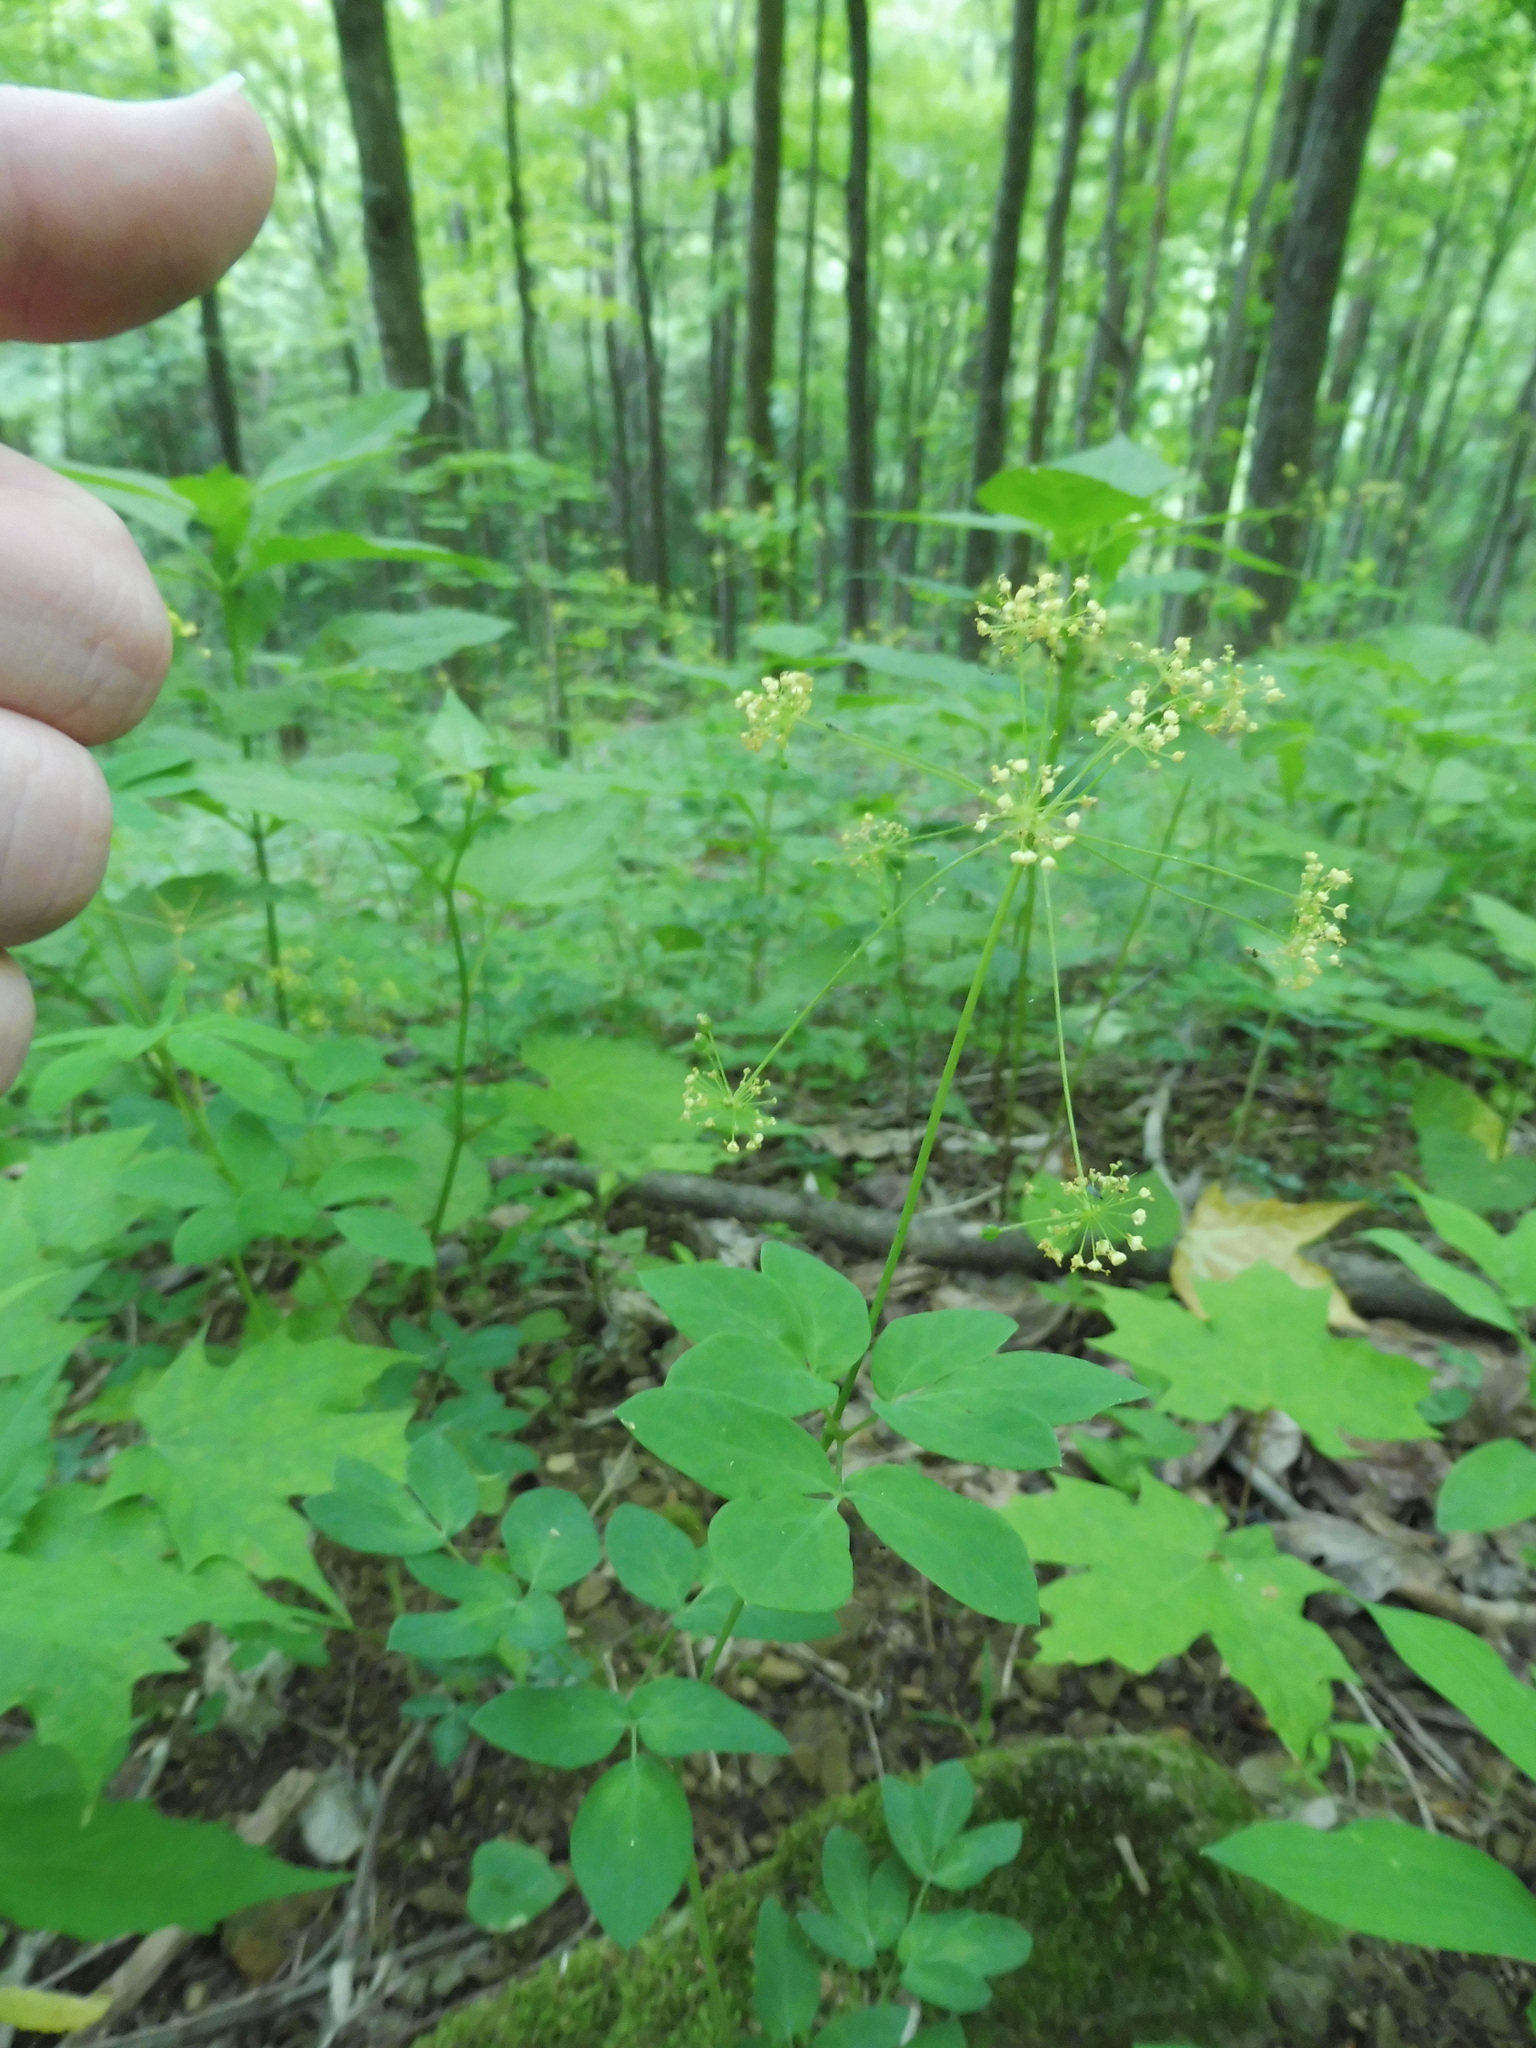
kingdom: Plantae
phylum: Tracheophyta
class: Magnoliopsida
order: Apiales
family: Apiaceae
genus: Taenidia
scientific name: Taenidia integerrima
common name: Golden alexander
